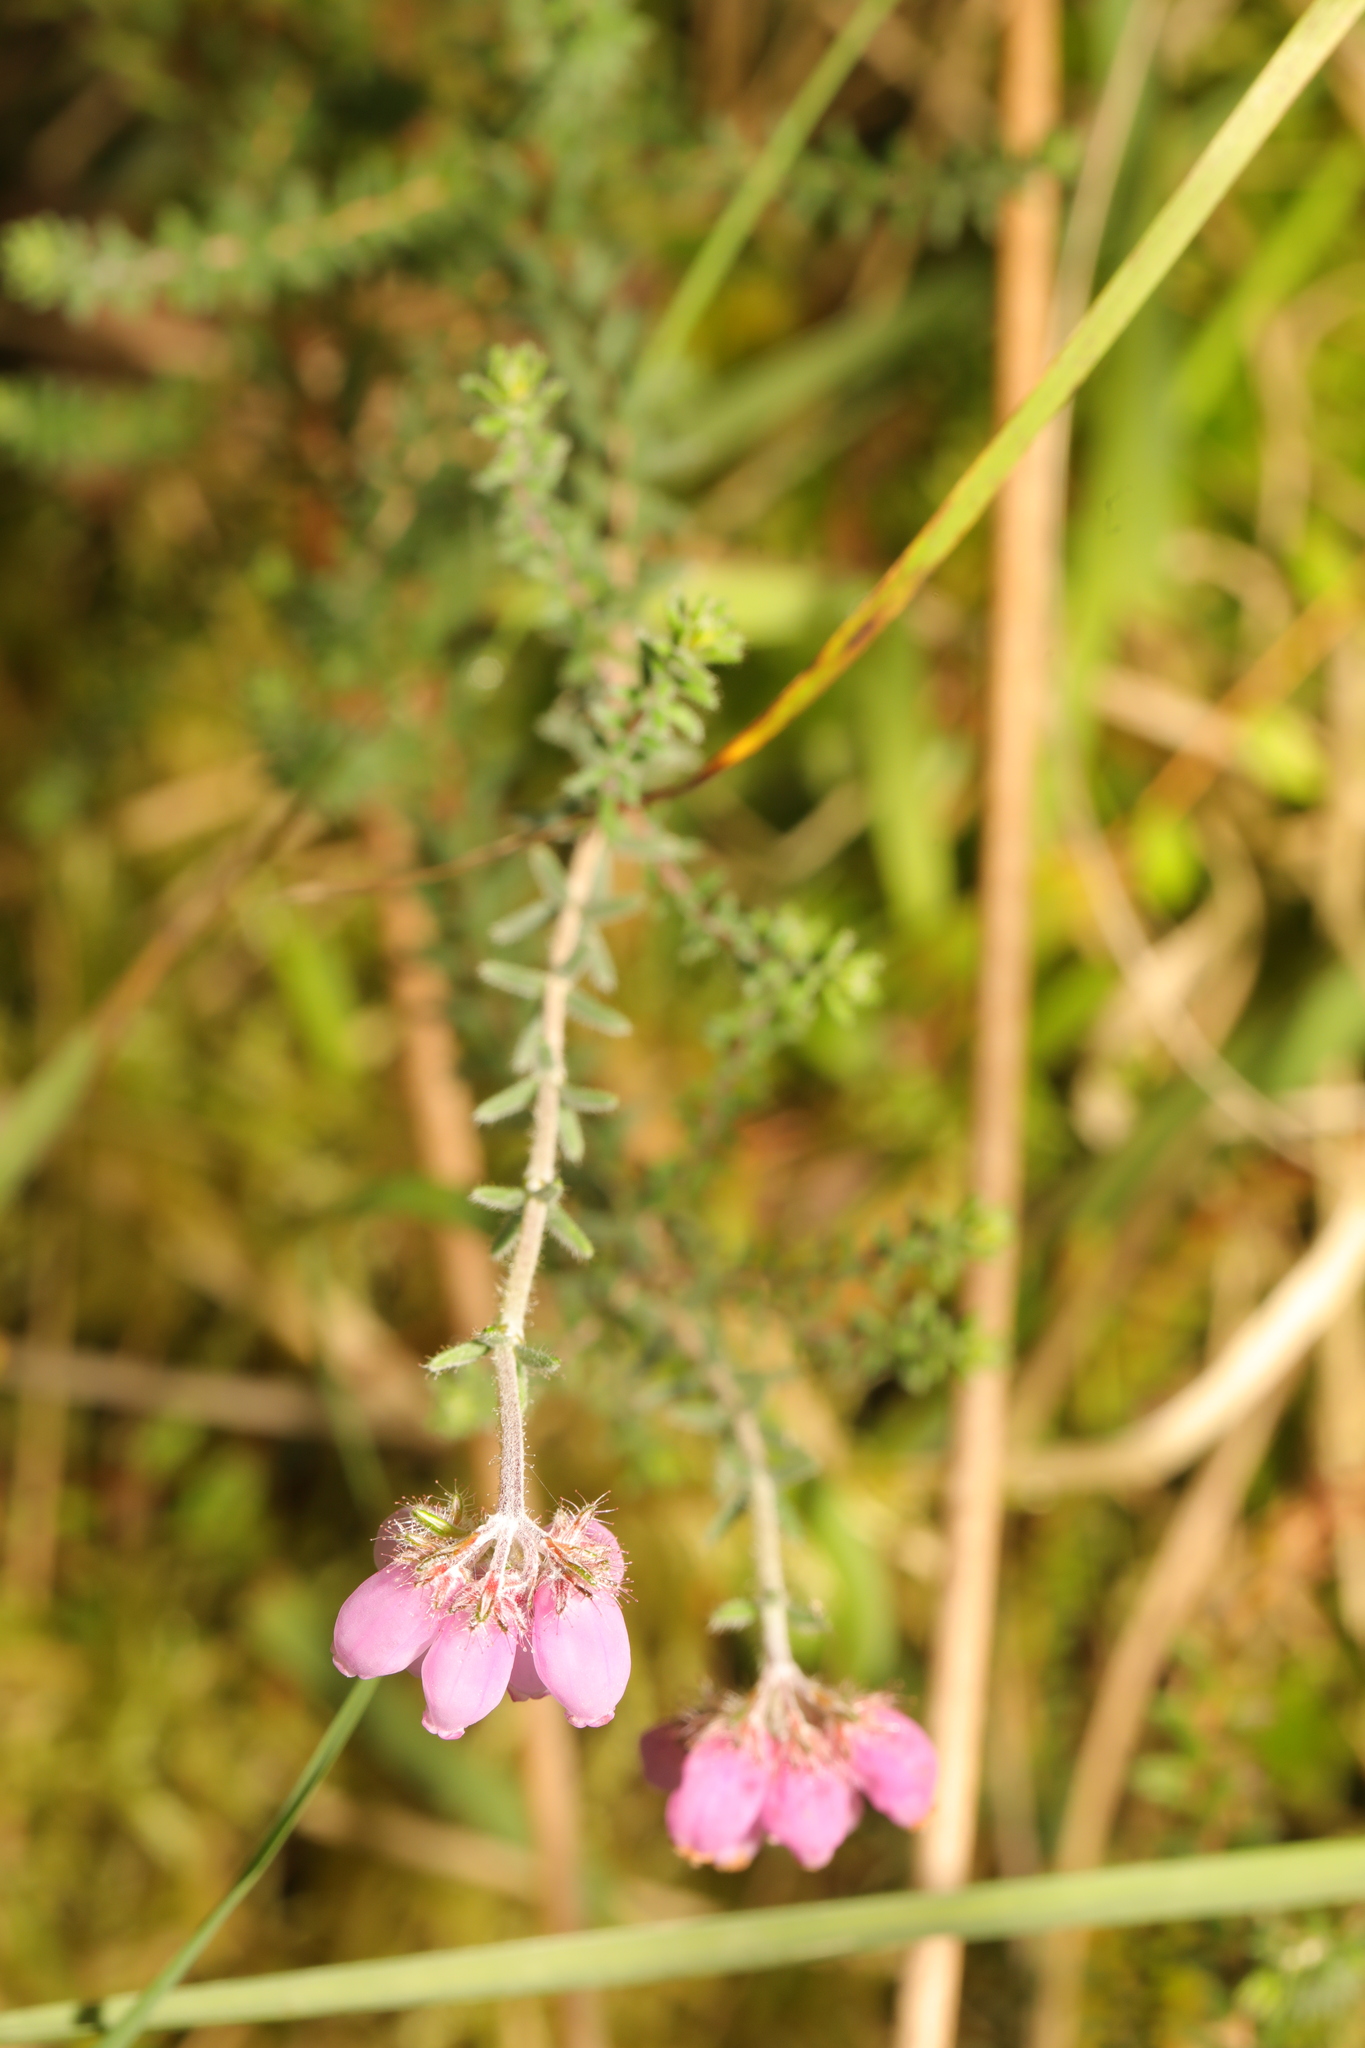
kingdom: Plantae
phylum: Tracheophyta
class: Magnoliopsida
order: Ericales
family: Ericaceae
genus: Erica
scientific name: Erica tetralix
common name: Cross-leaved heath
